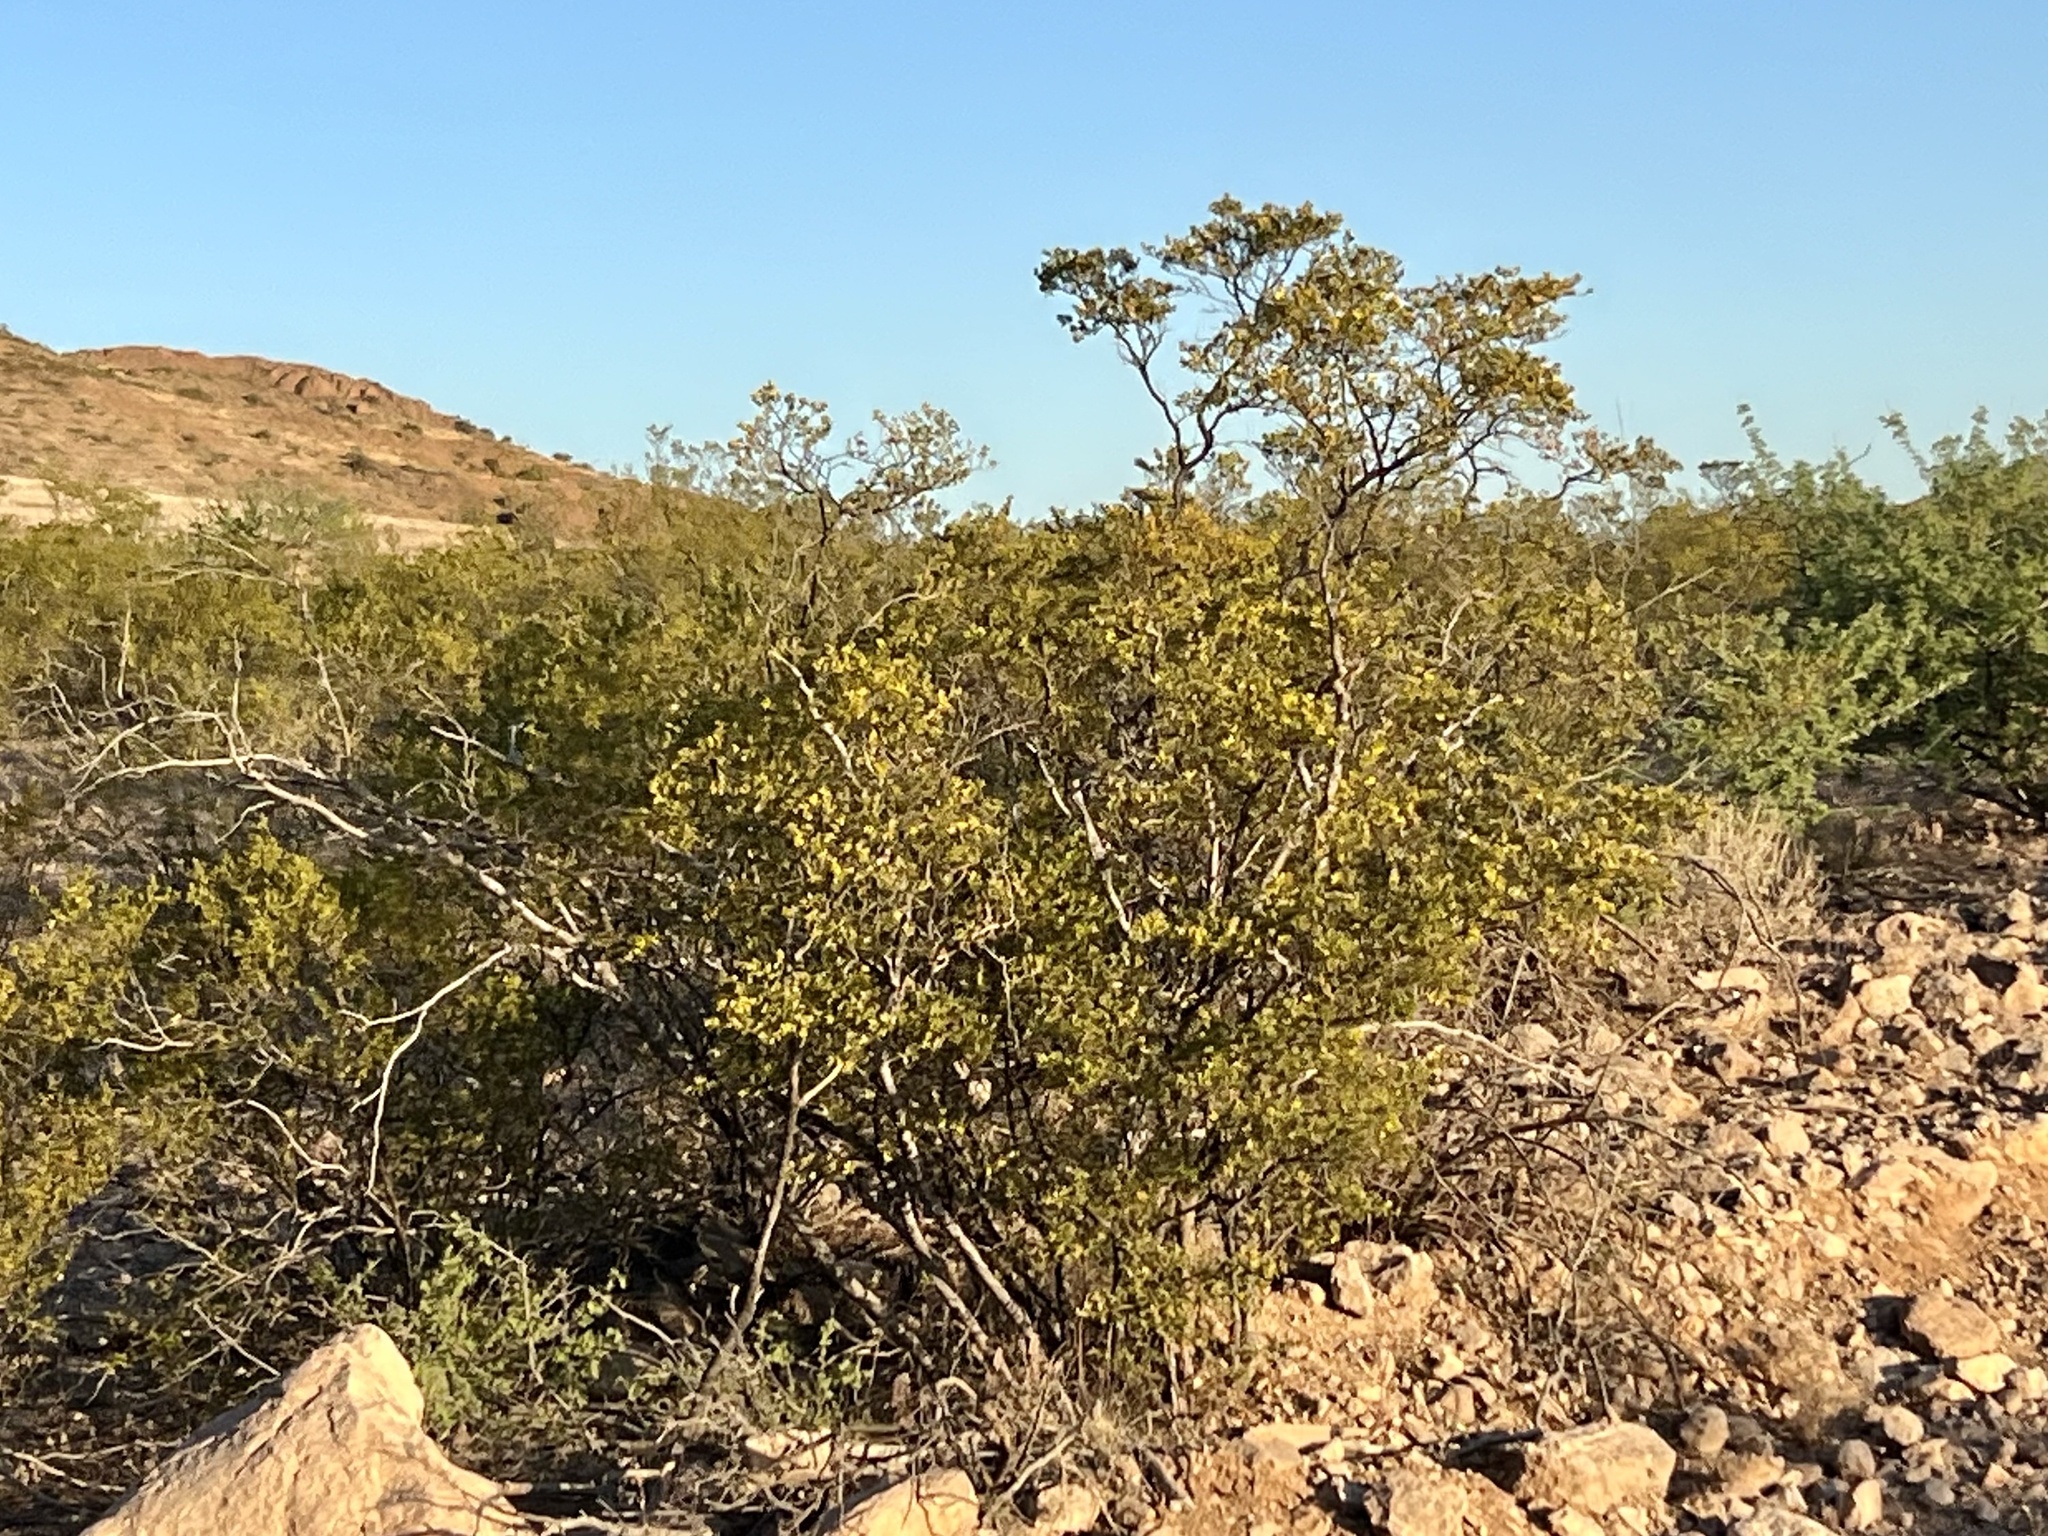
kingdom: Plantae
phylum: Tracheophyta
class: Magnoliopsida
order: Zygophyllales
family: Zygophyllaceae
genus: Larrea
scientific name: Larrea tridentata
